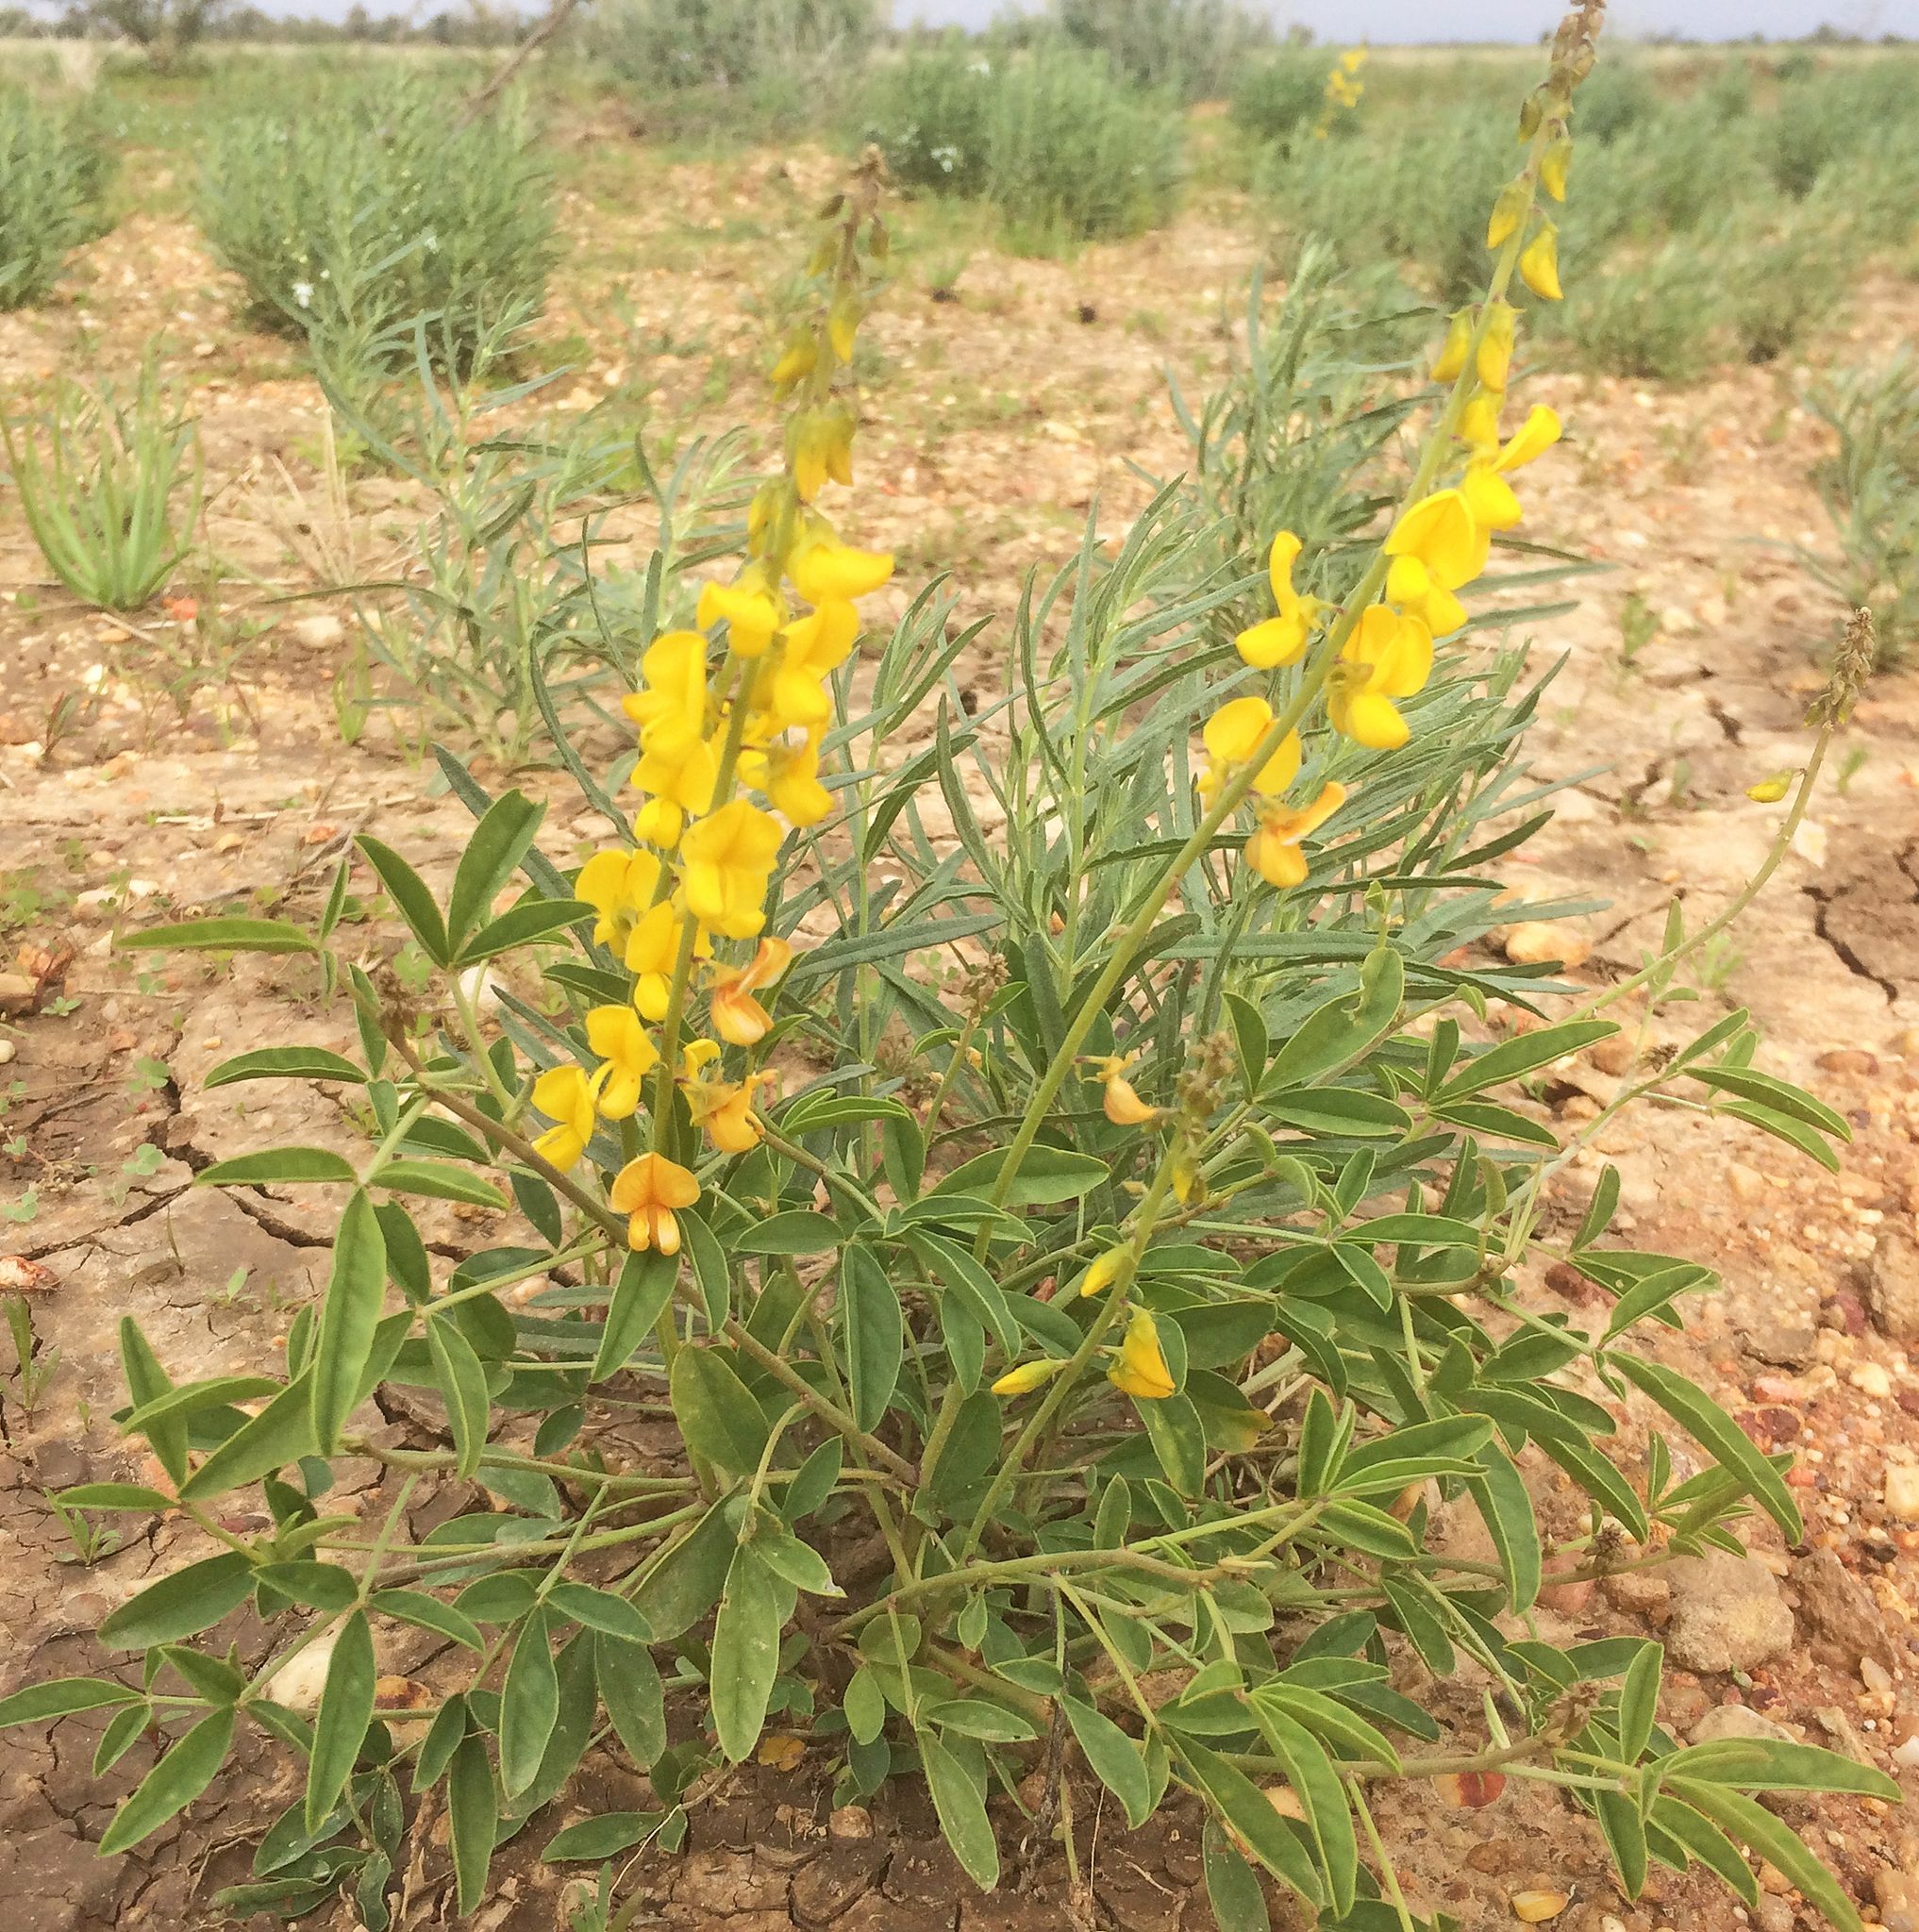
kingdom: Plantae
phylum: Tracheophyta
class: Magnoliopsida
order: Fabales
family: Fabaceae
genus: Crotalaria
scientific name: Crotalaria dissitiflora
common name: Grey rattlepod
